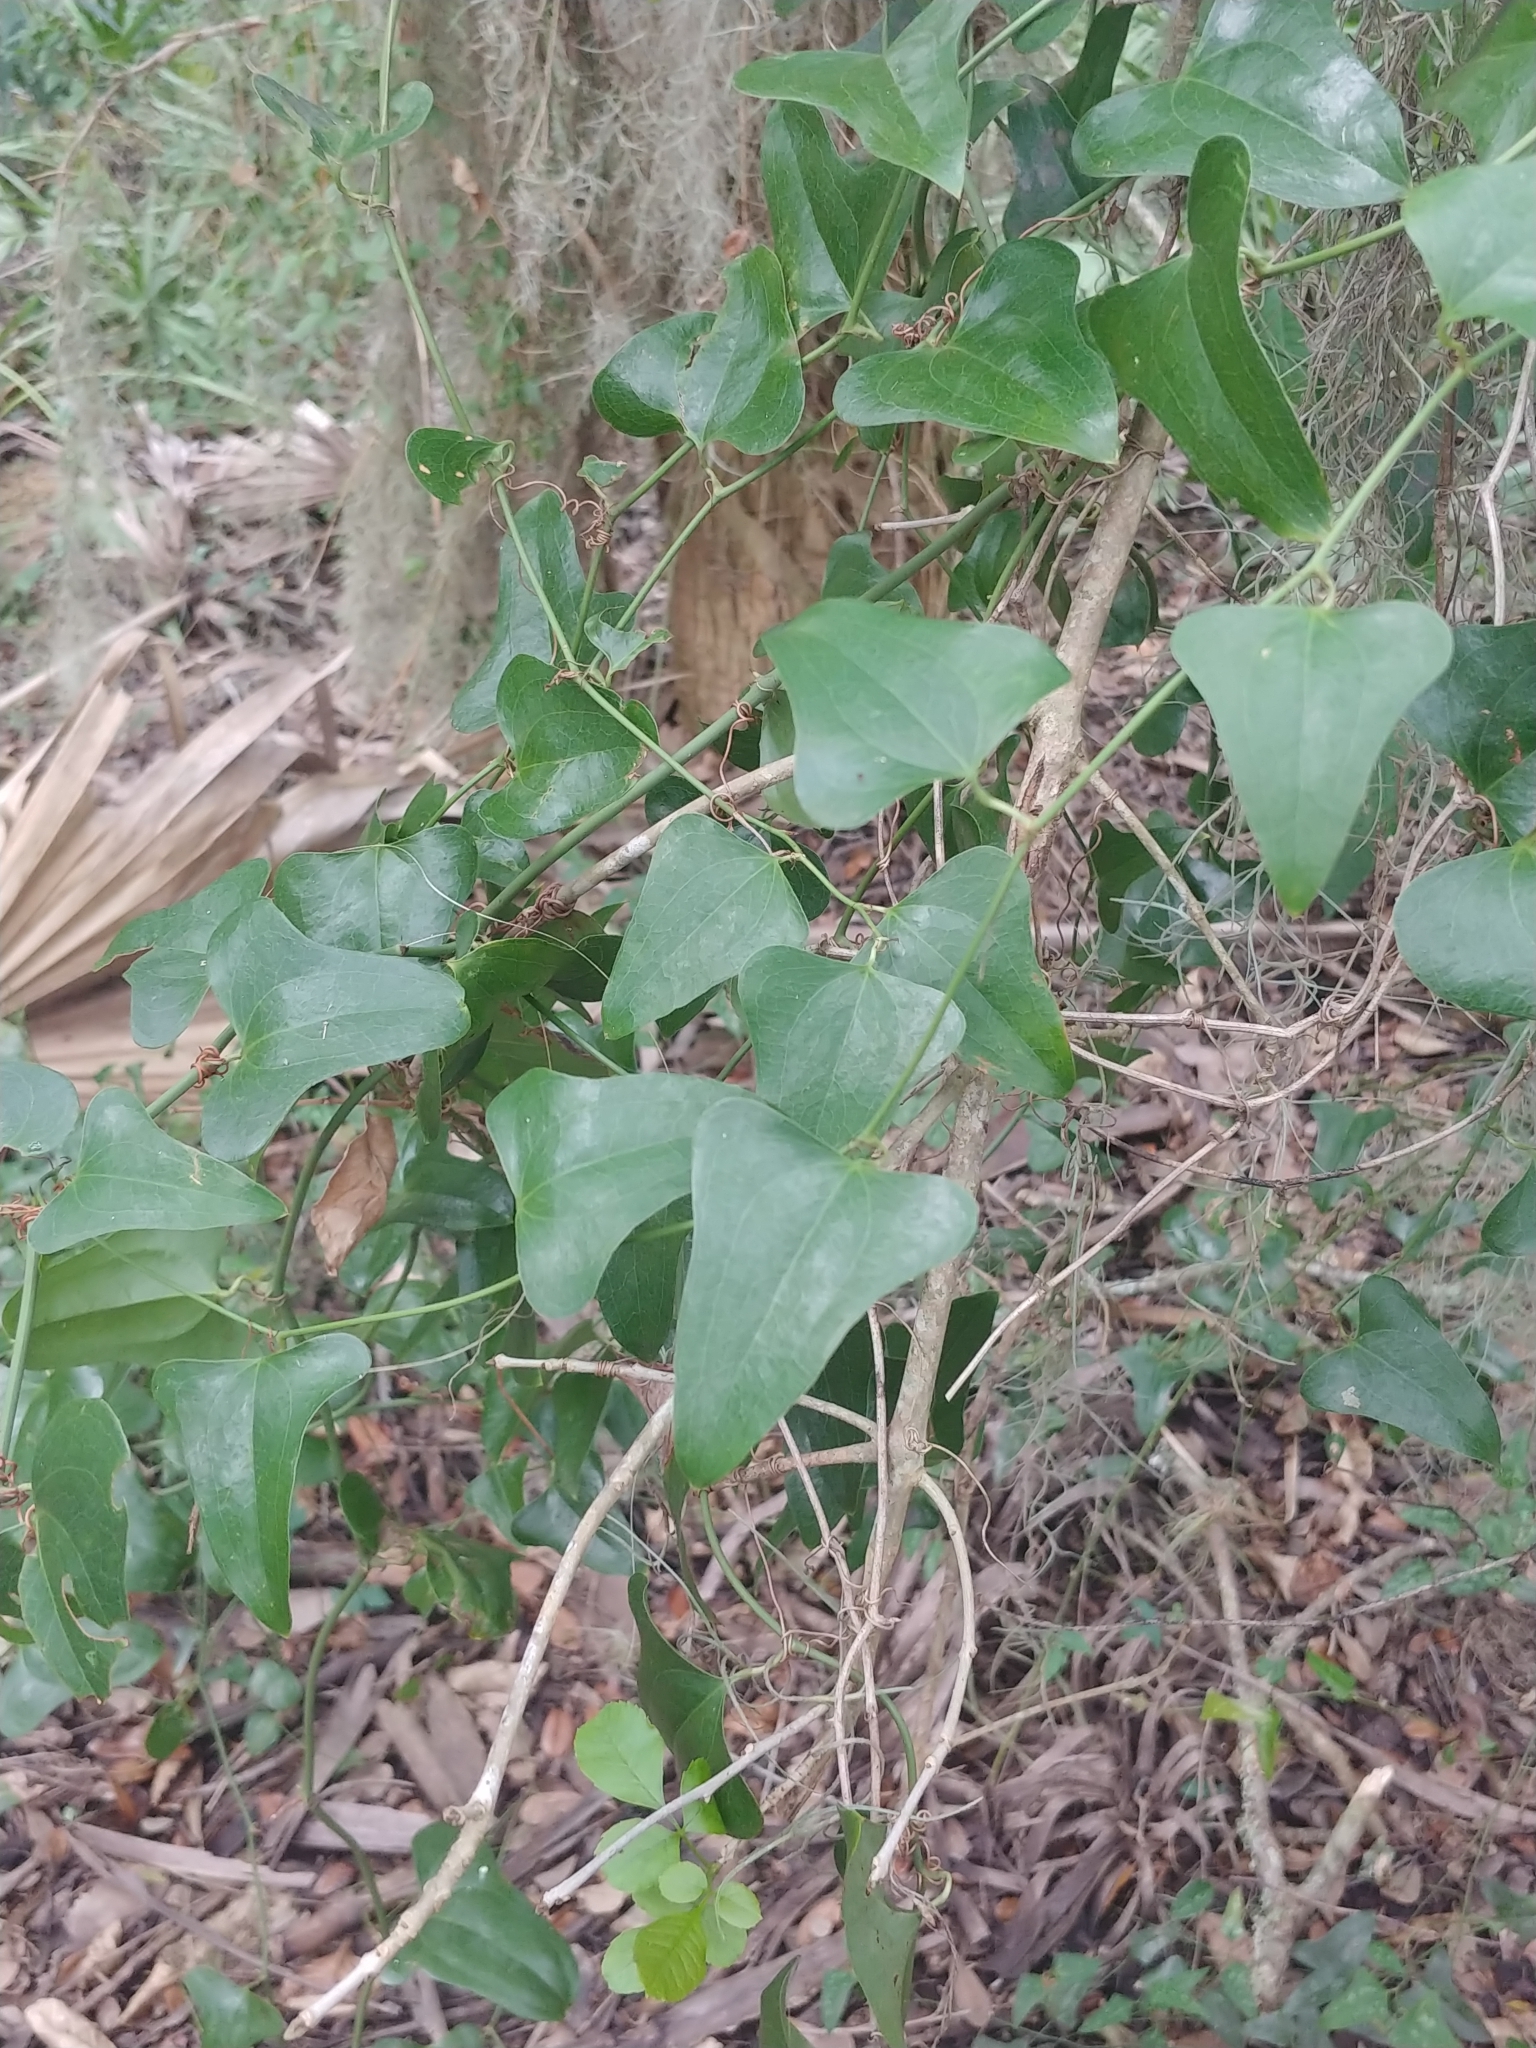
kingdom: Plantae
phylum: Tracheophyta
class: Liliopsida
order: Liliales
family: Smilacaceae
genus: Smilax
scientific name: Smilax auriculata
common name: Wild bamboo
